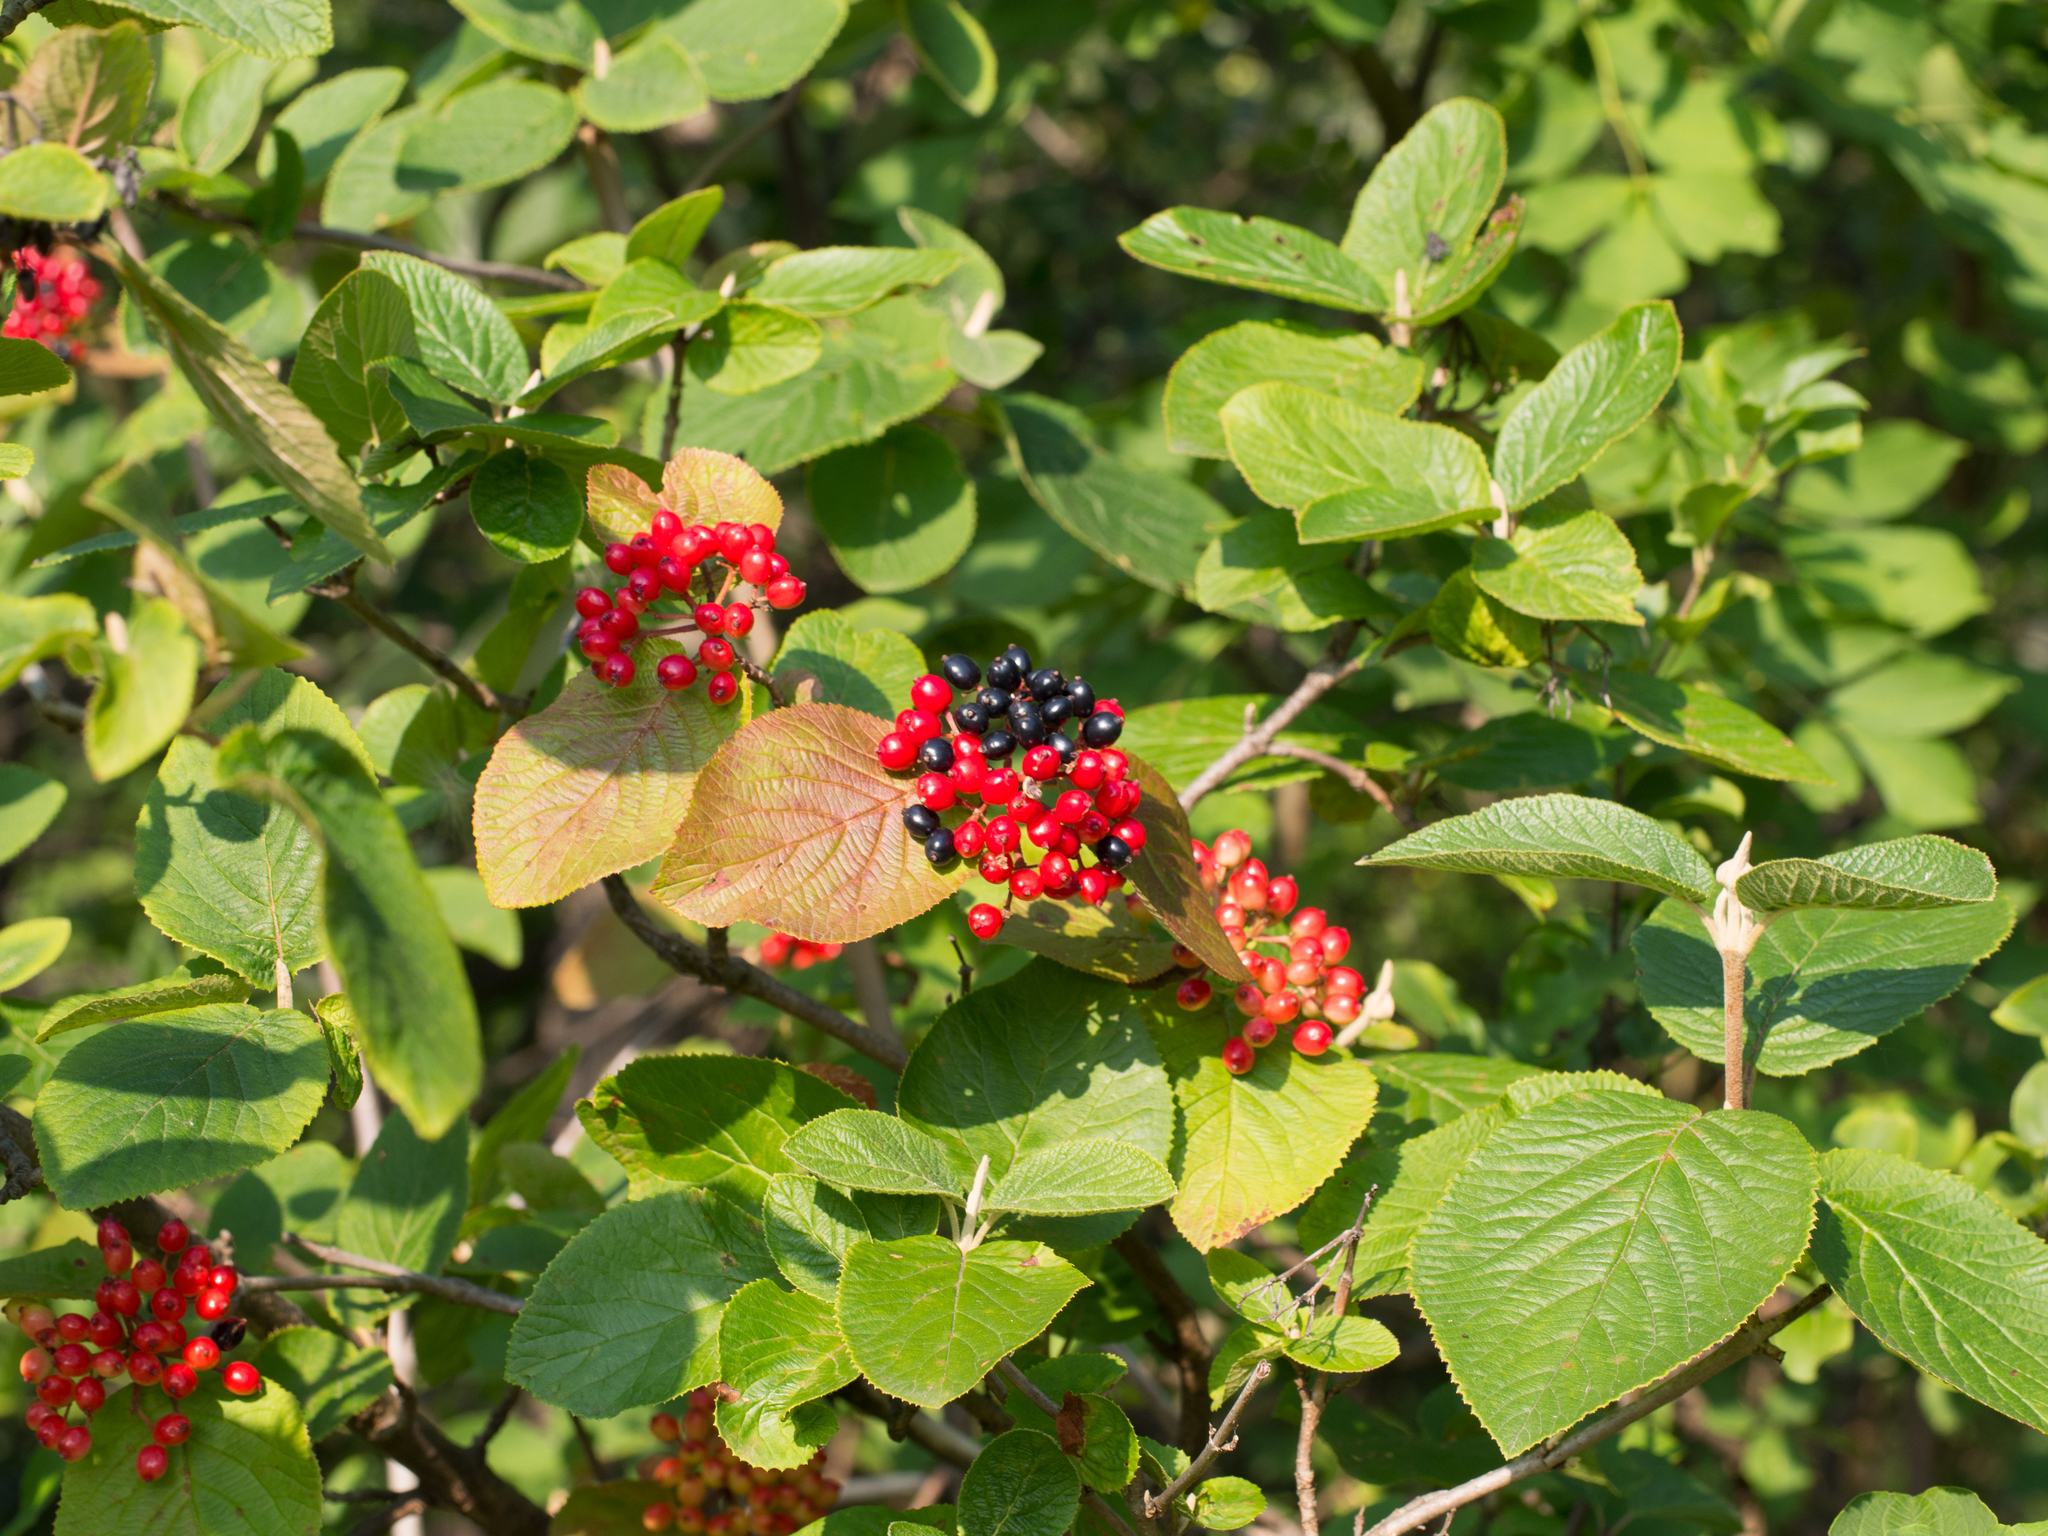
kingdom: Plantae
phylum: Tracheophyta
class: Magnoliopsida
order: Dipsacales
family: Viburnaceae
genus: Viburnum
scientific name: Viburnum lantana
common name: Wayfaring tree
